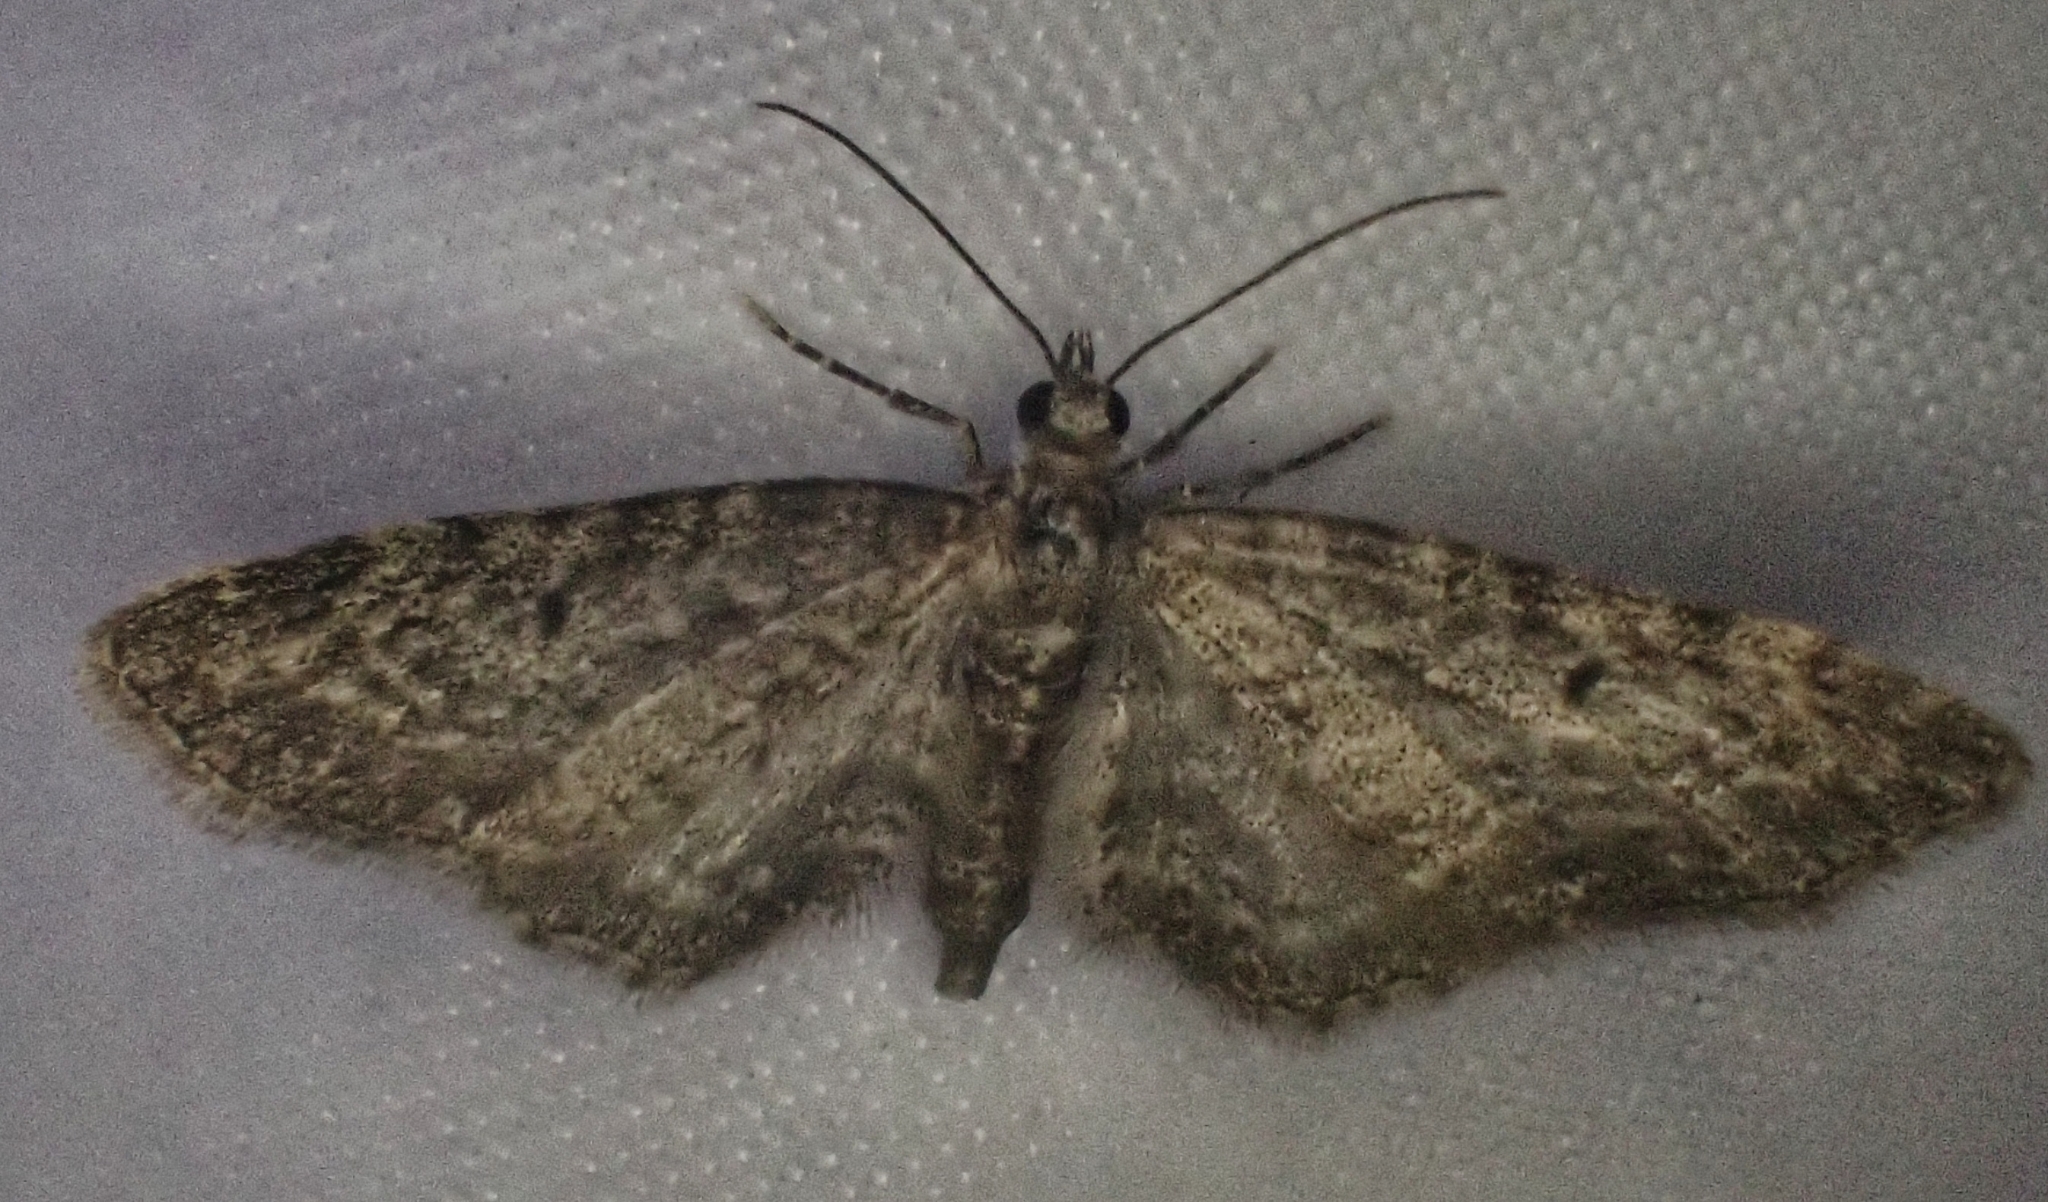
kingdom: Animalia
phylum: Arthropoda
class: Insecta
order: Lepidoptera
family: Geometridae
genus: Eupithecia
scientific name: Eupithecia vulgata
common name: Common pug
